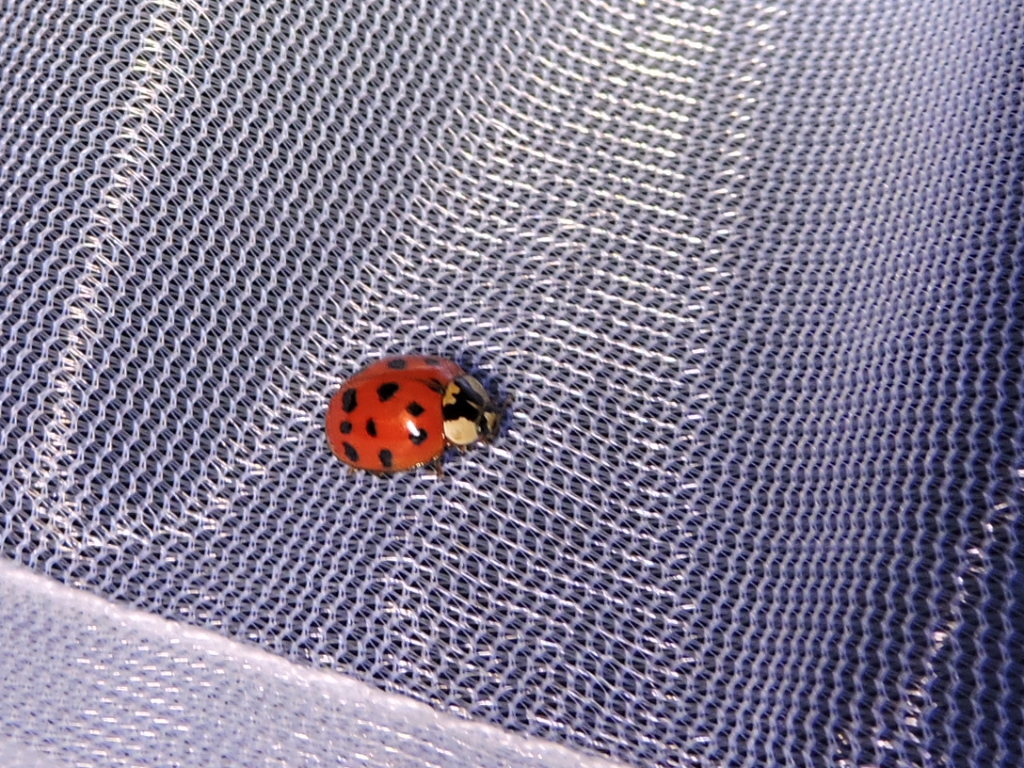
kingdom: Animalia
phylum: Arthropoda
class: Insecta
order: Coleoptera
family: Coccinellidae
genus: Harmonia
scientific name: Harmonia axyridis
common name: Harlequin ladybird
